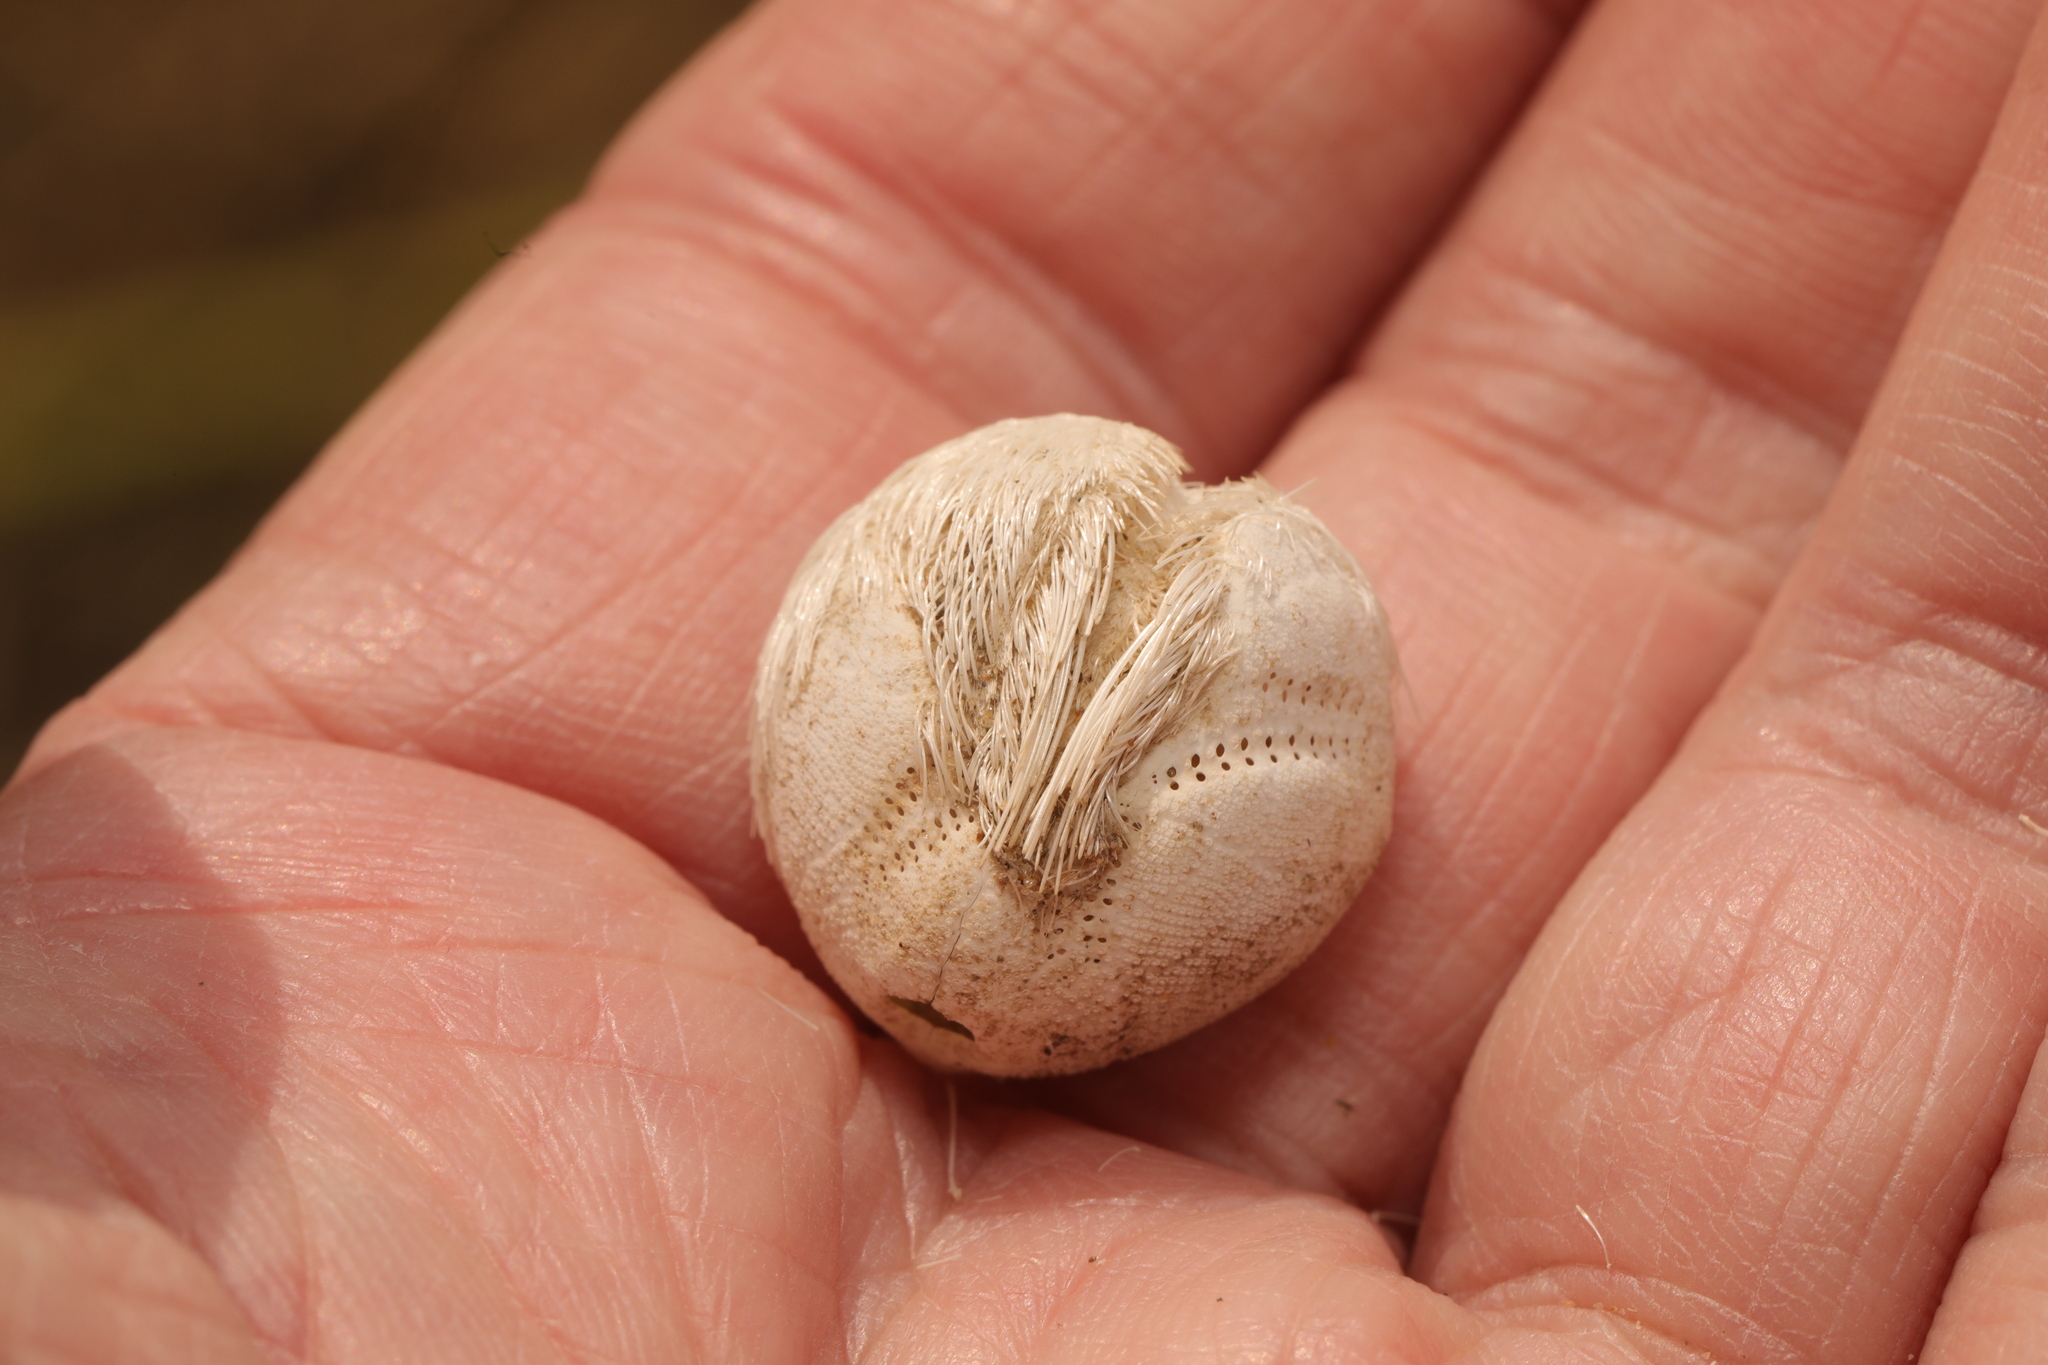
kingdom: Animalia
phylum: Echinodermata
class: Echinoidea
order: Spatangoida
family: Loveniidae
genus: Echinocardium
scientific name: Echinocardium cordatum
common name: Heart-urchin
